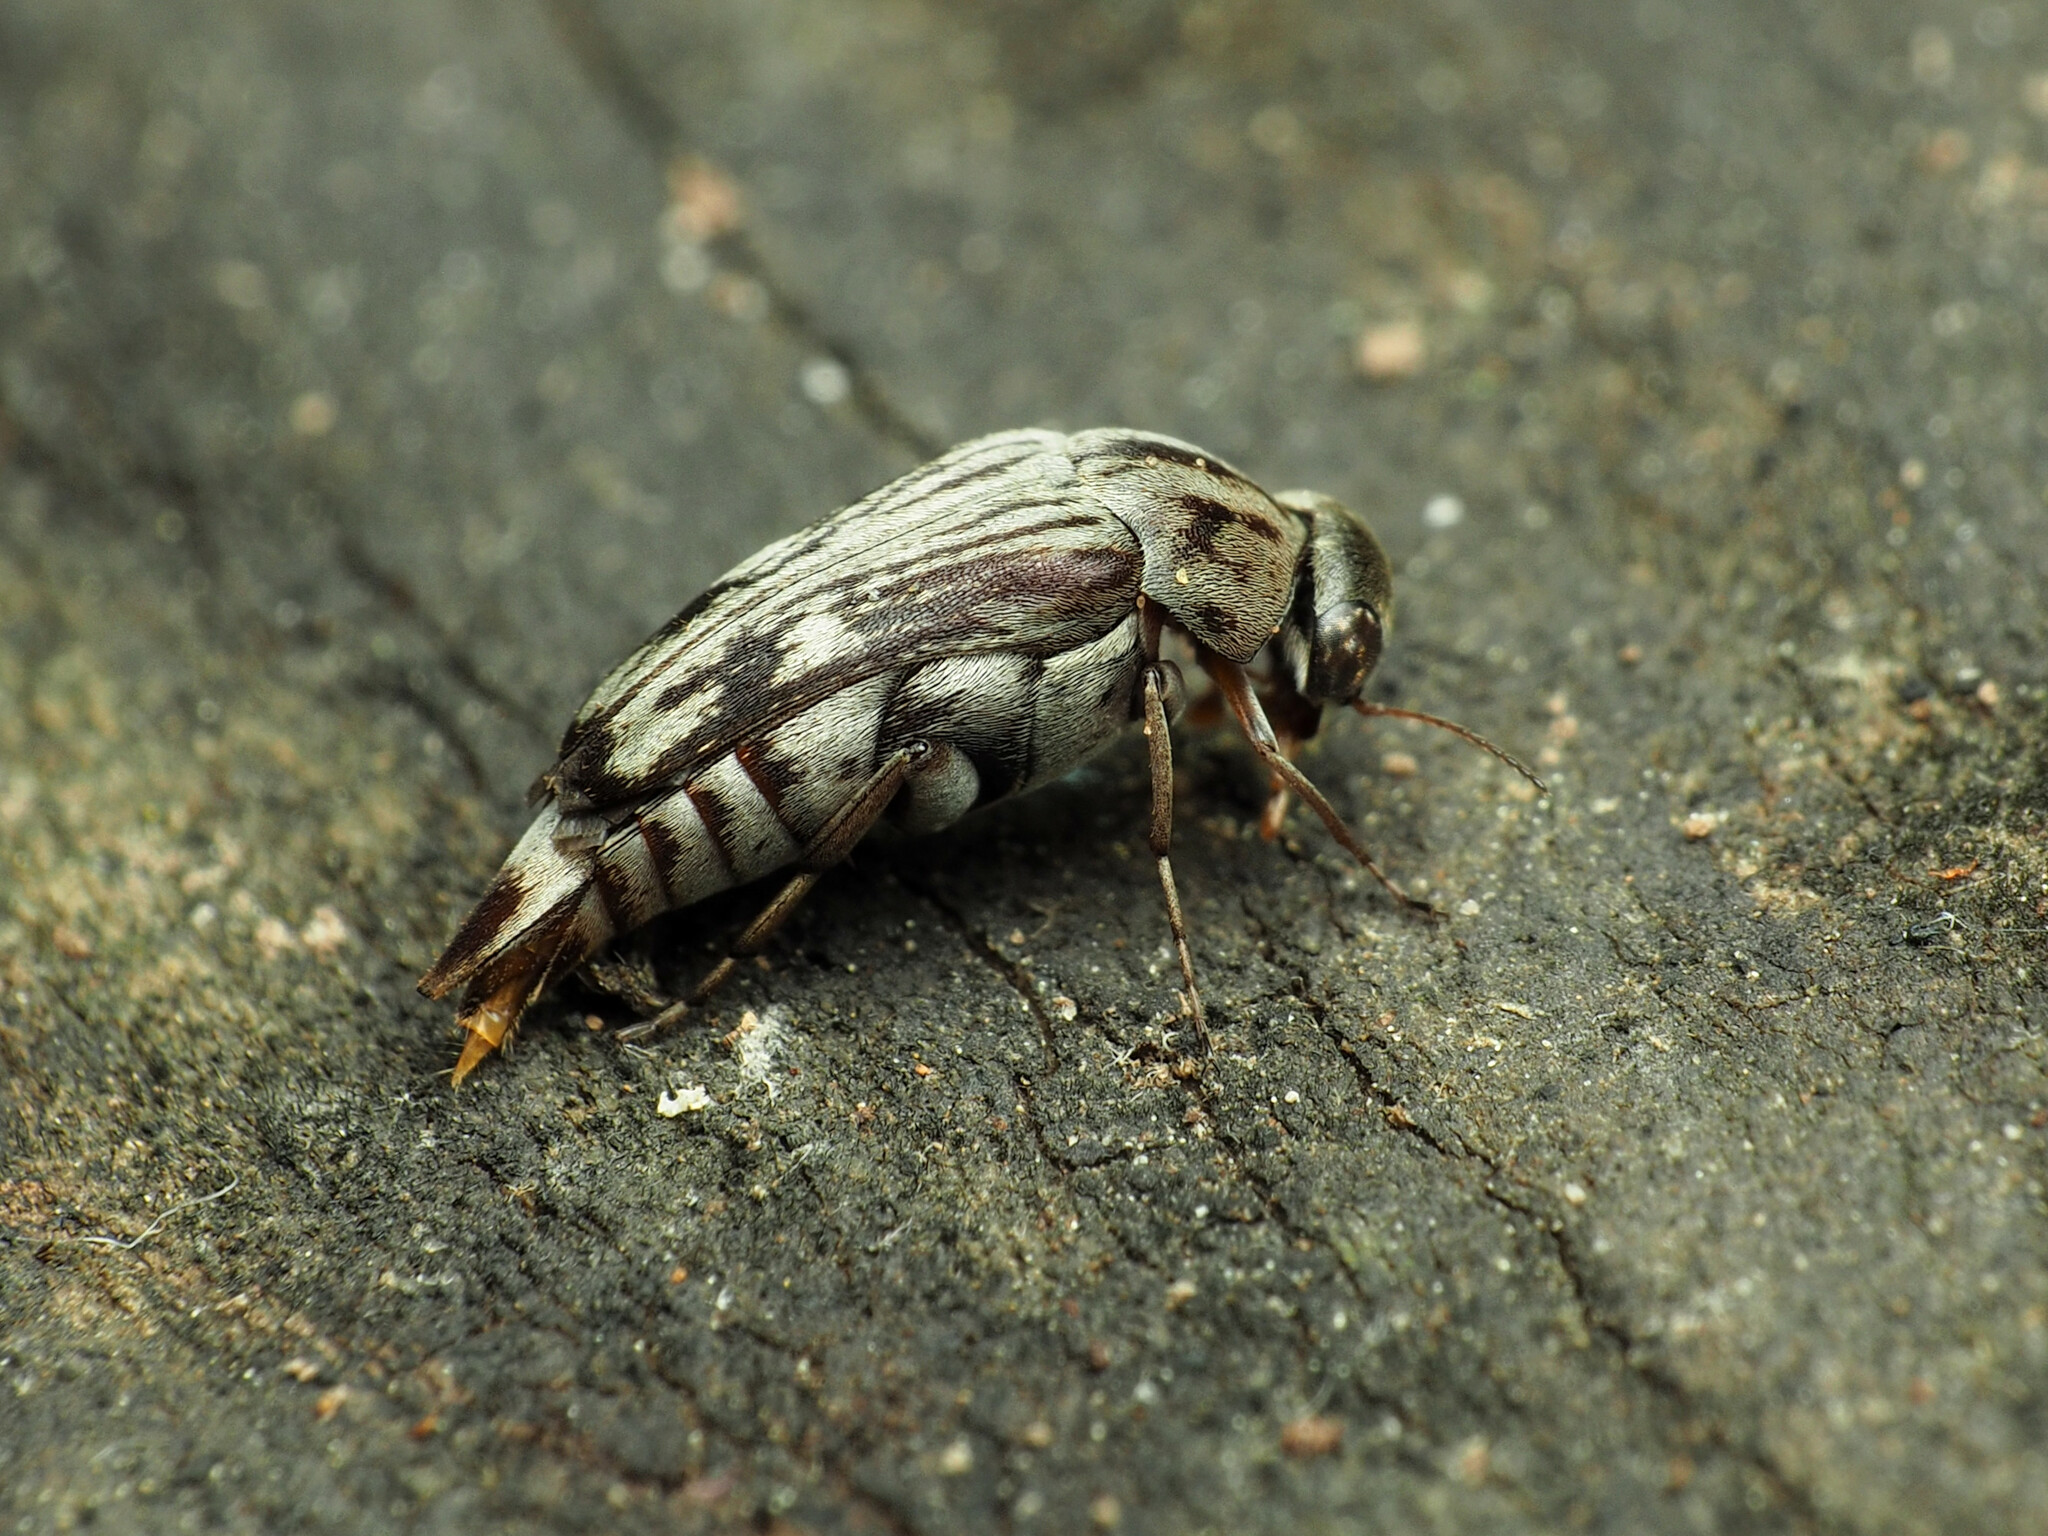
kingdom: Animalia
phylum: Arthropoda
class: Insecta
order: Coleoptera
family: Mordellidae
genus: Tomoxia
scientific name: Tomoxia lineella
